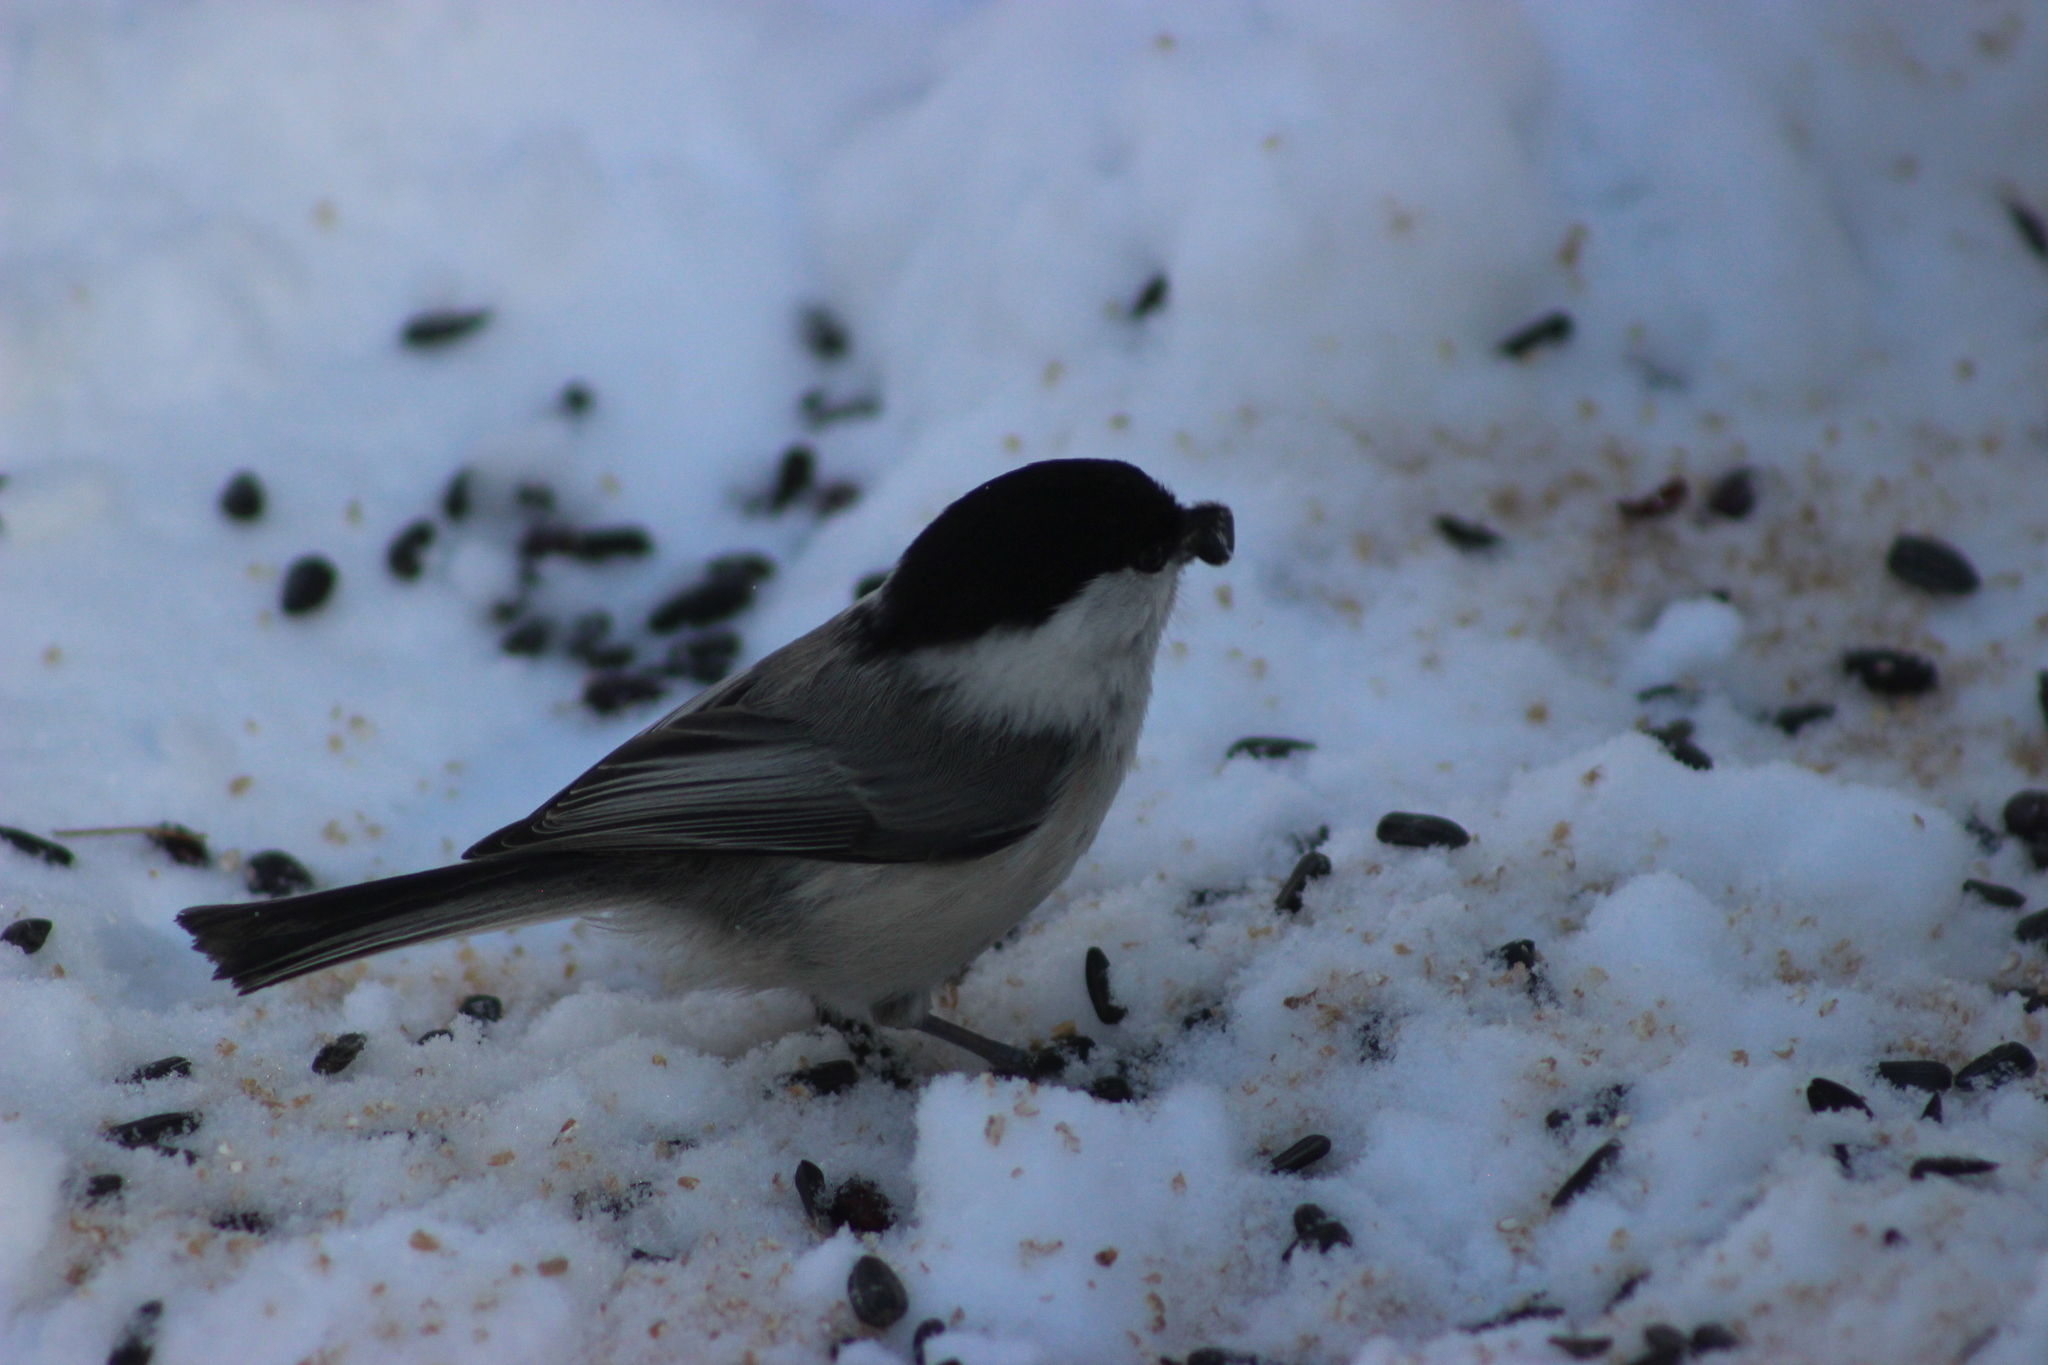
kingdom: Animalia
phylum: Chordata
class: Aves
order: Passeriformes
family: Paridae
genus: Poecile
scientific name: Poecile montanus
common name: Willow tit
